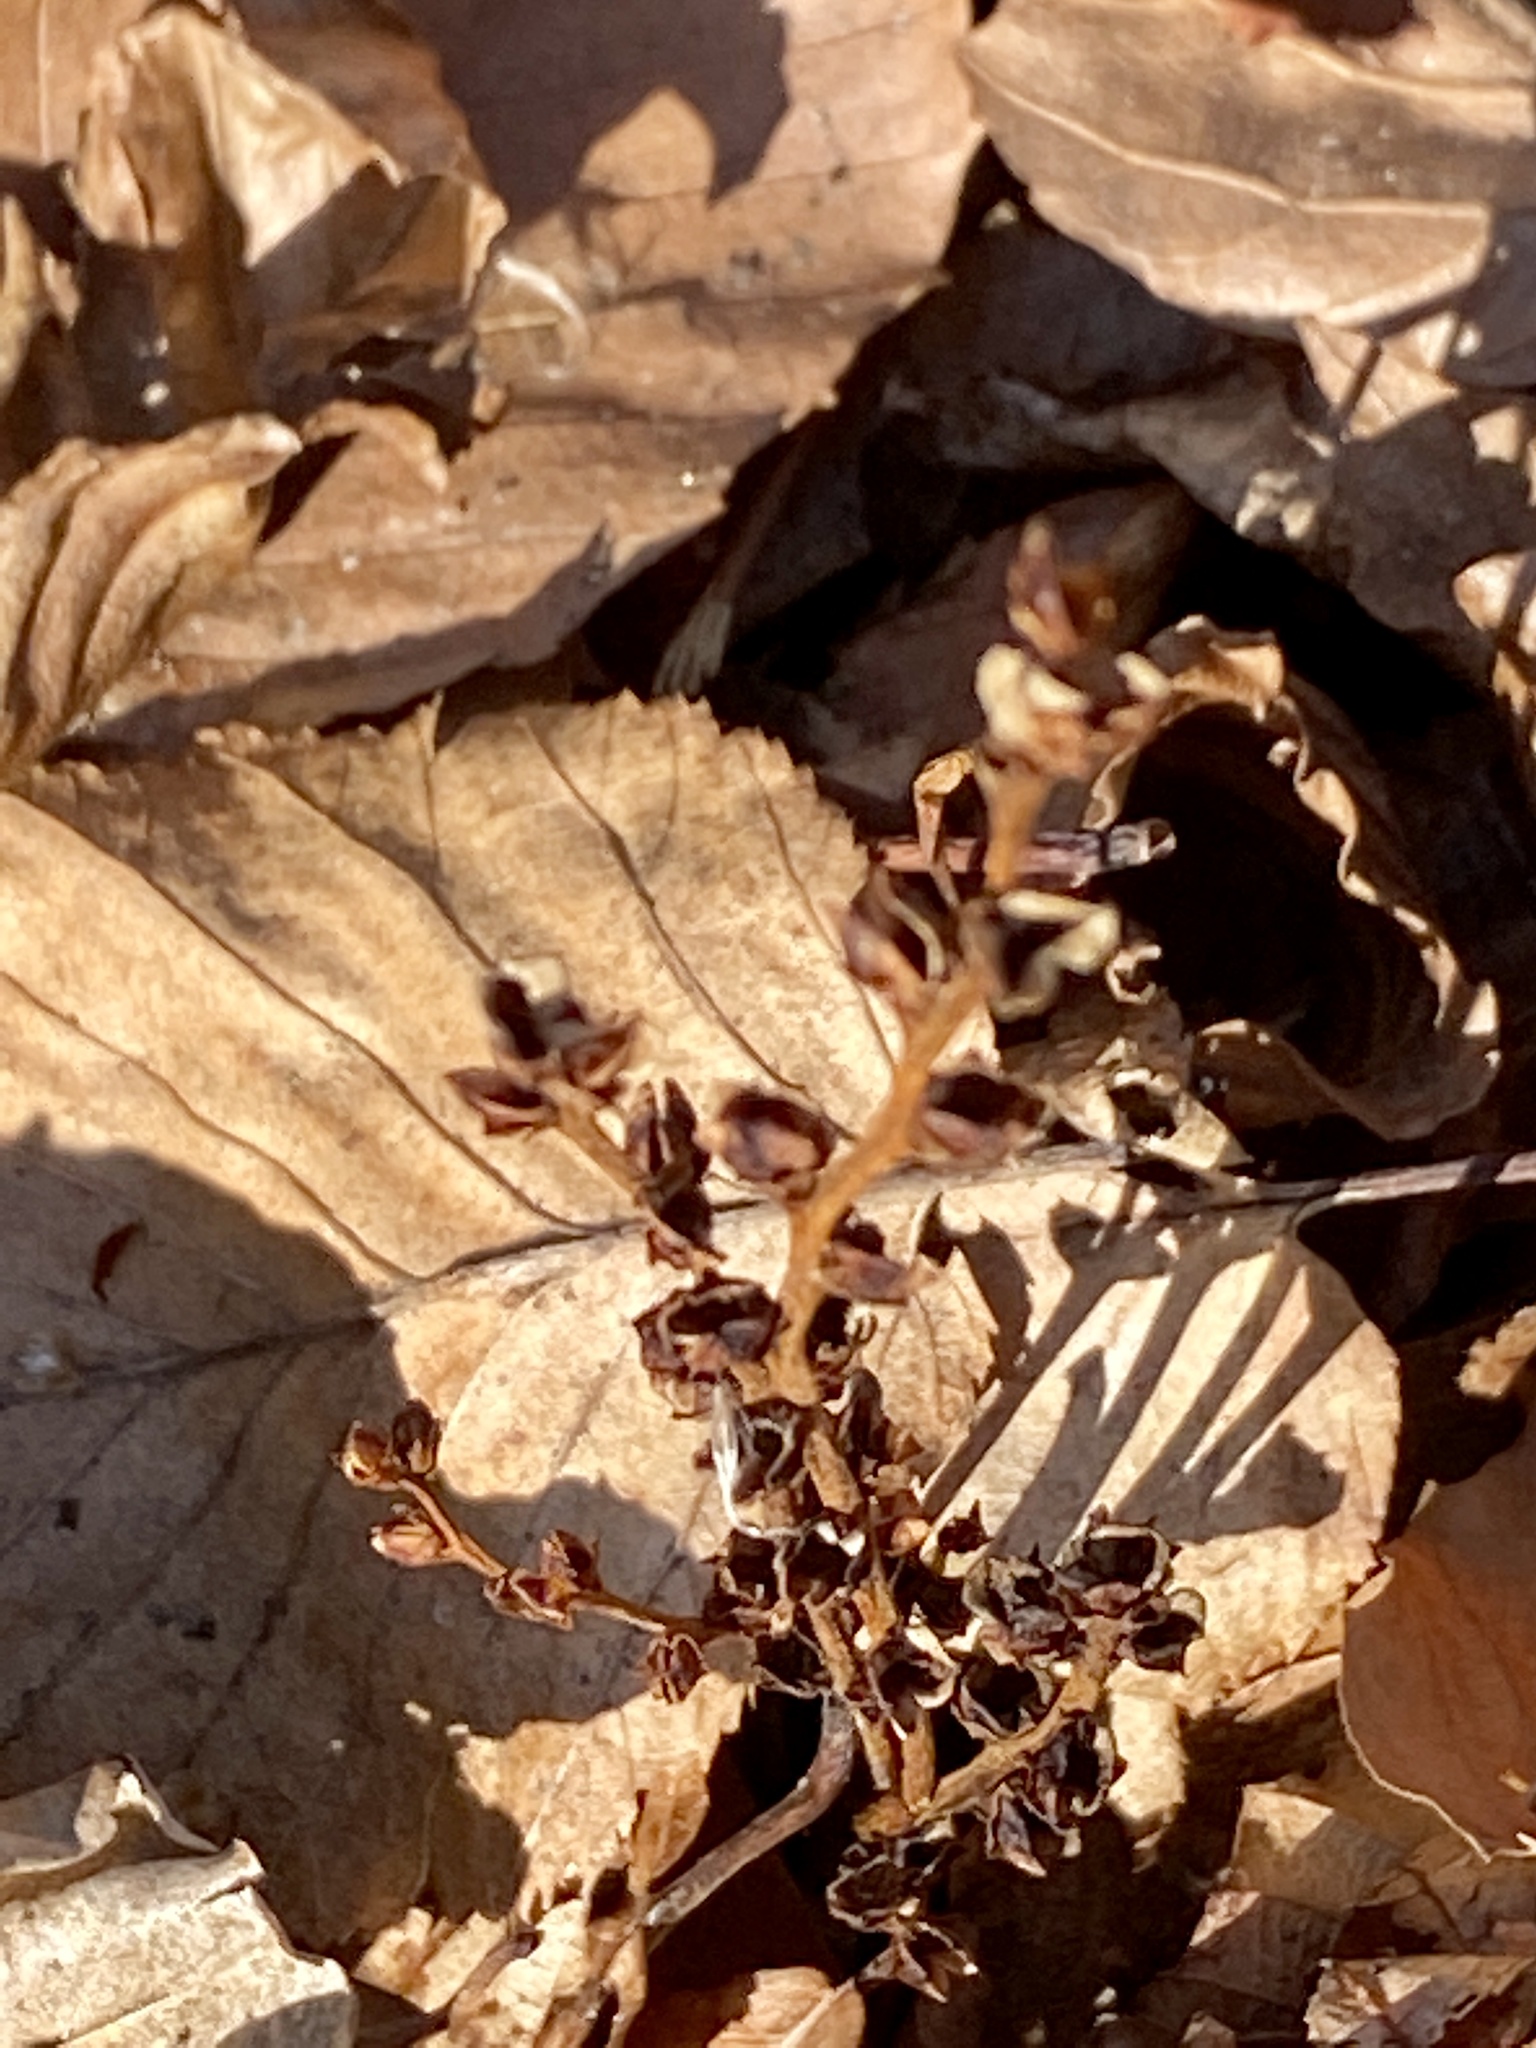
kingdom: Plantae
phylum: Tracheophyta
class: Magnoliopsida
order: Lamiales
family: Orobanchaceae
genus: Epifagus
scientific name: Epifagus virginiana
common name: Beechdrops
